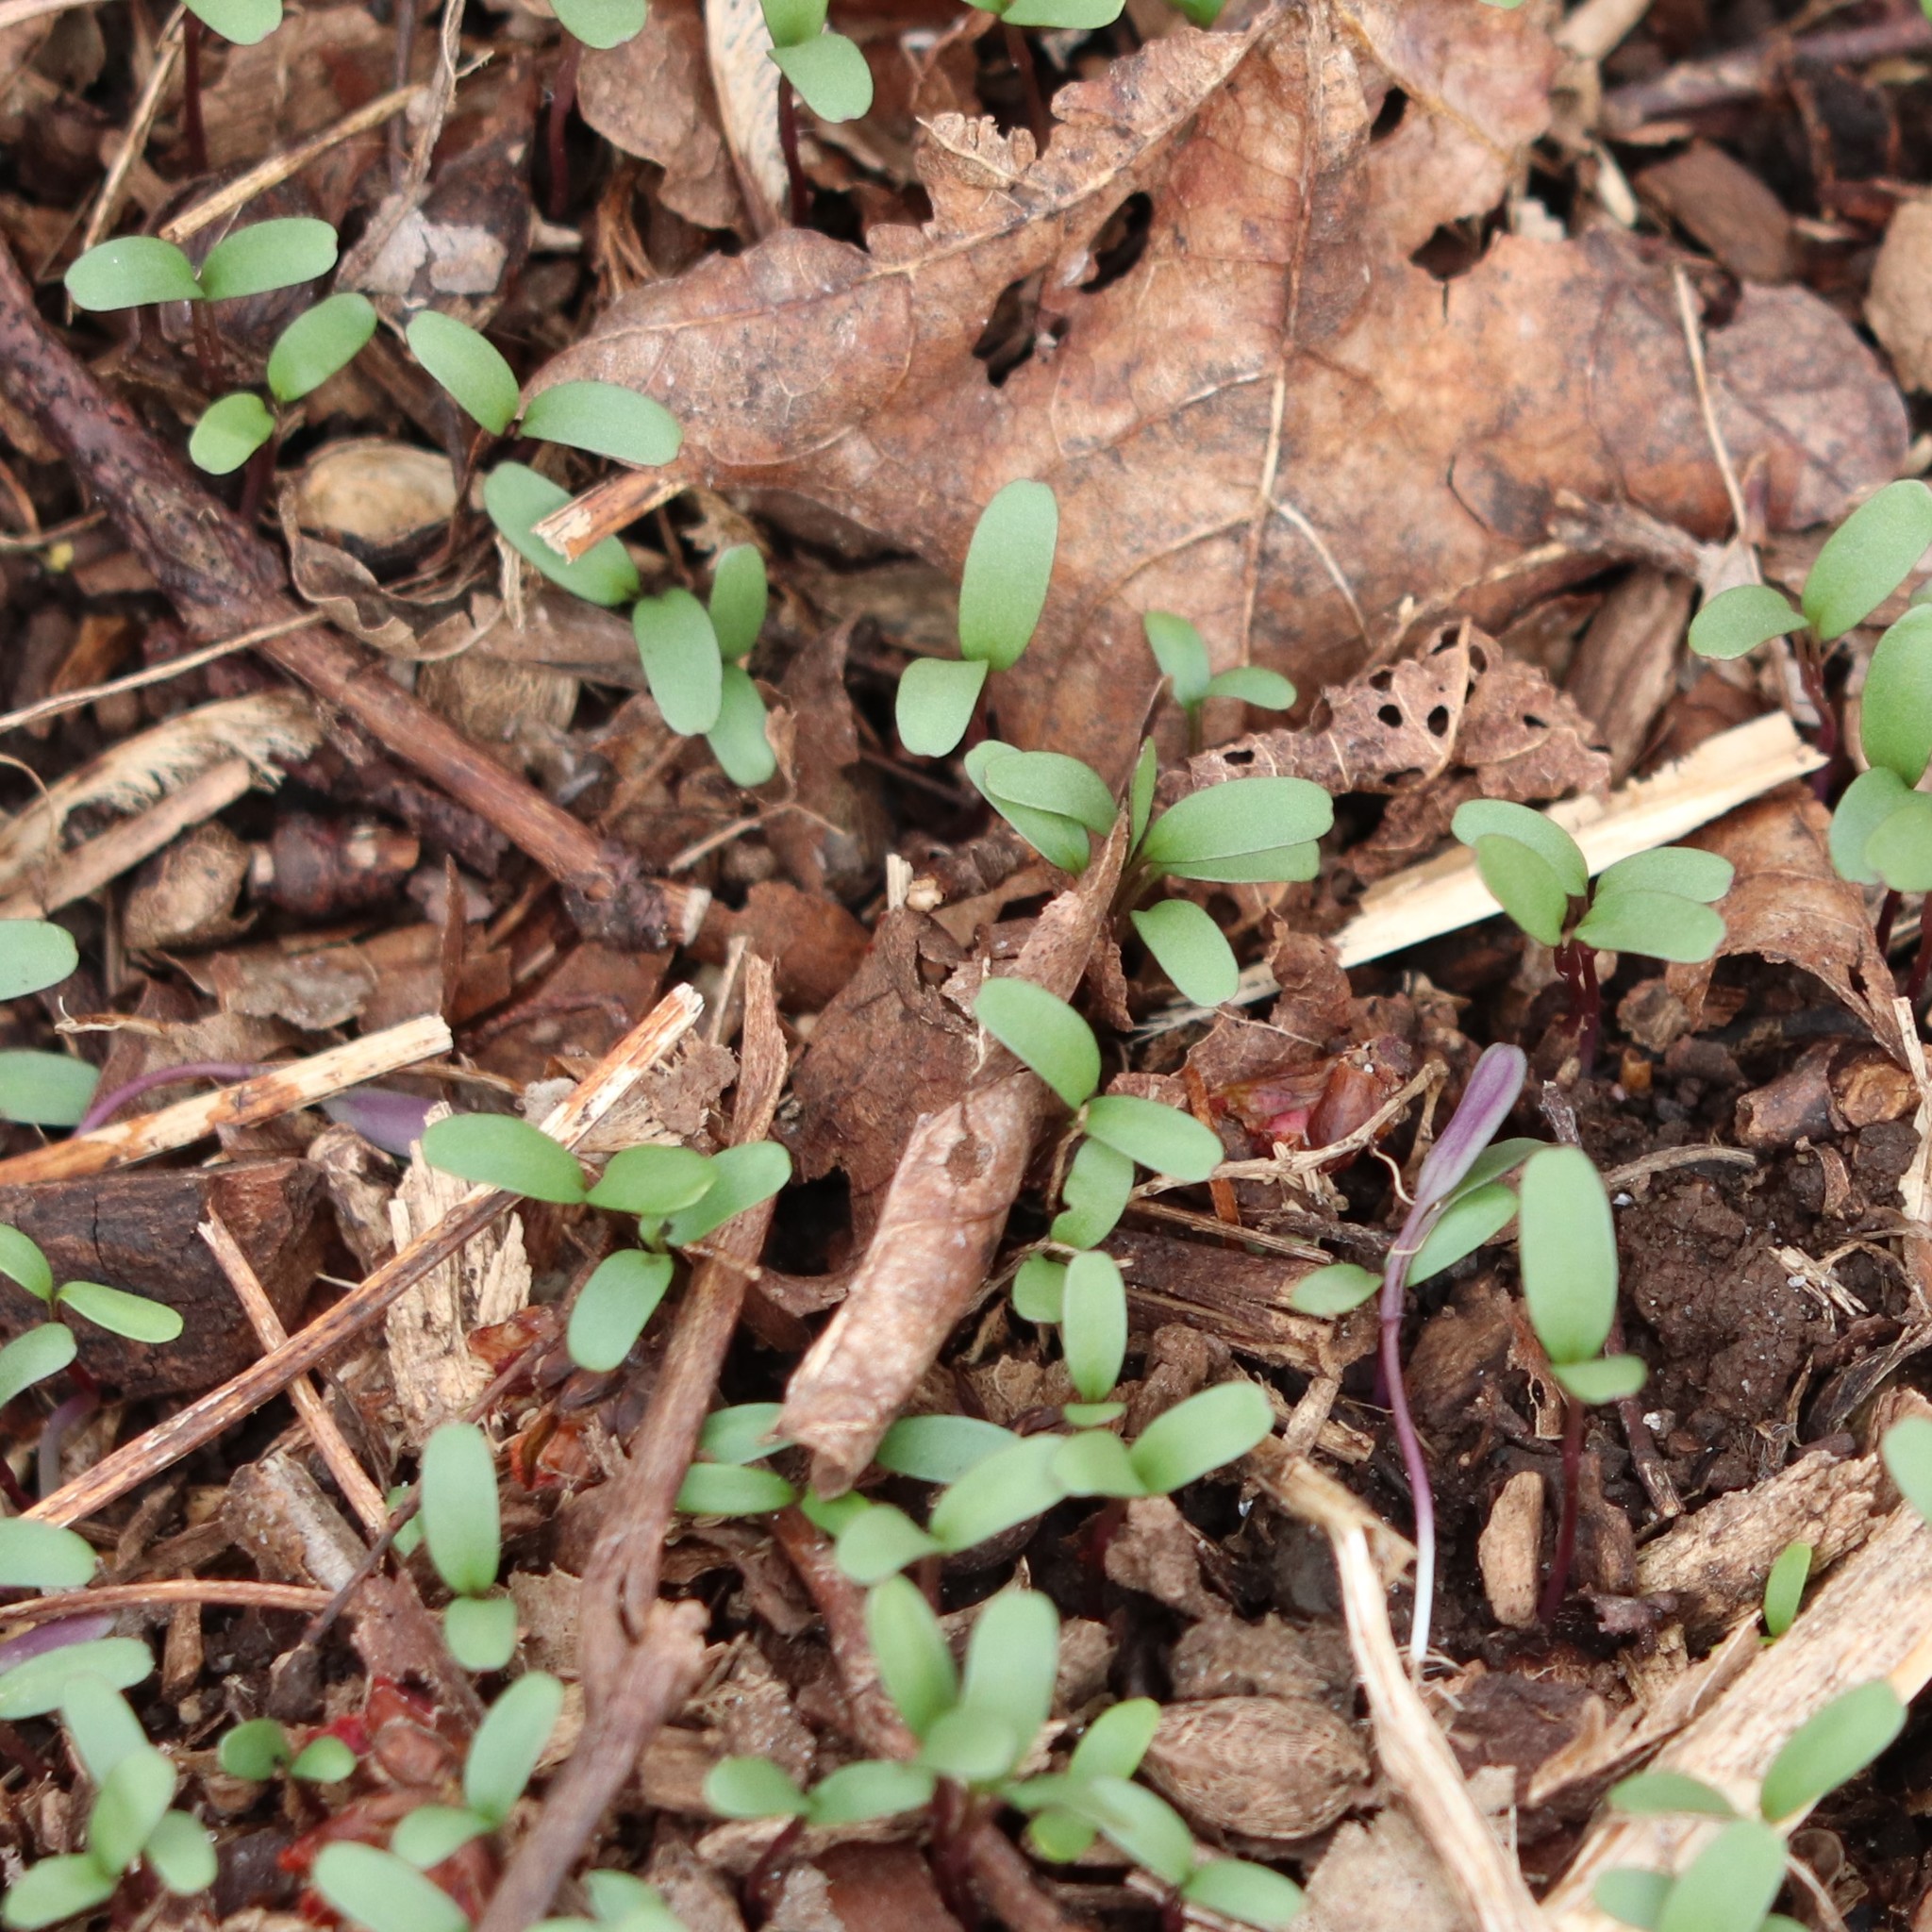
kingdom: Plantae
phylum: Tracheophyta
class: Magnoliopsida
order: Brassicales
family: Brassicaceae
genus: Alliaria
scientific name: Alliaria petiolata
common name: Garlic mustard
